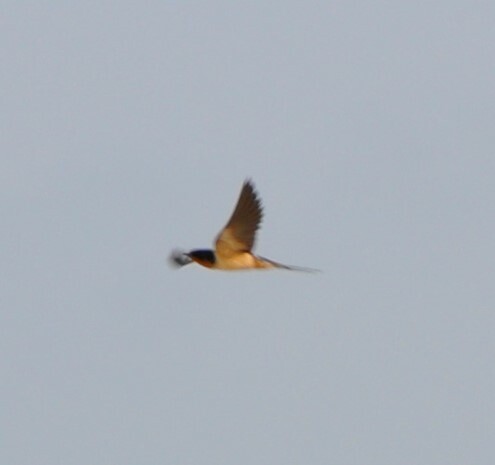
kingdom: Animalia
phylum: Chordata
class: Aves
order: Passeriformes
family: Hirundinidae
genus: Hirundo
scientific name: Hirundo rustica
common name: Barn swallow
